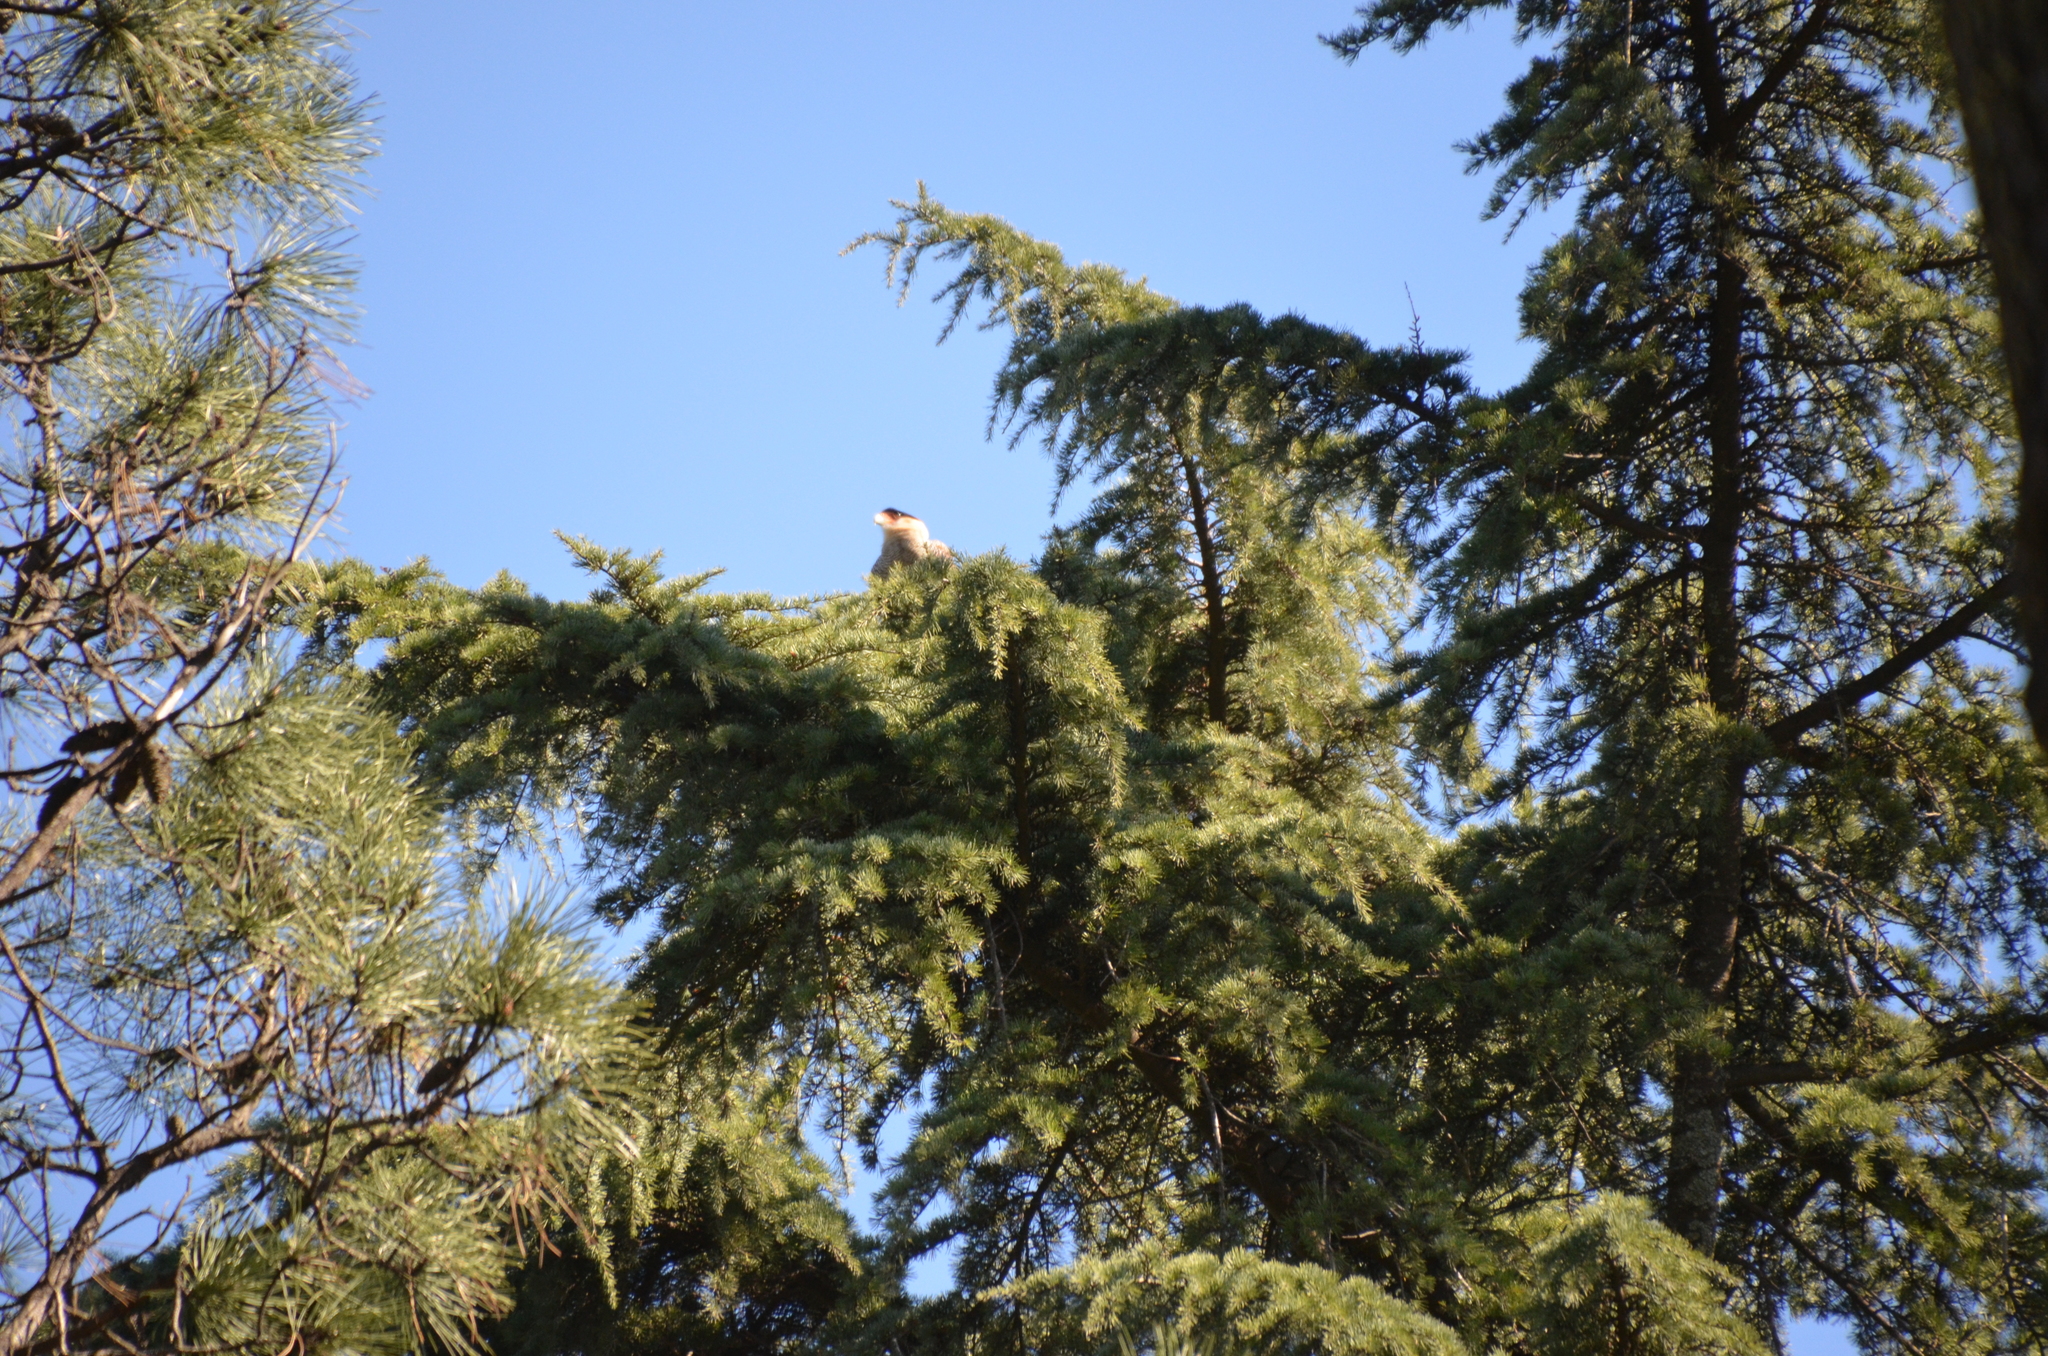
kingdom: Animalia
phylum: Chordata
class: Aves
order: Falconiformes
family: Falconidae
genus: Caracara
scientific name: Caracara plancus
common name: Southern caracara
